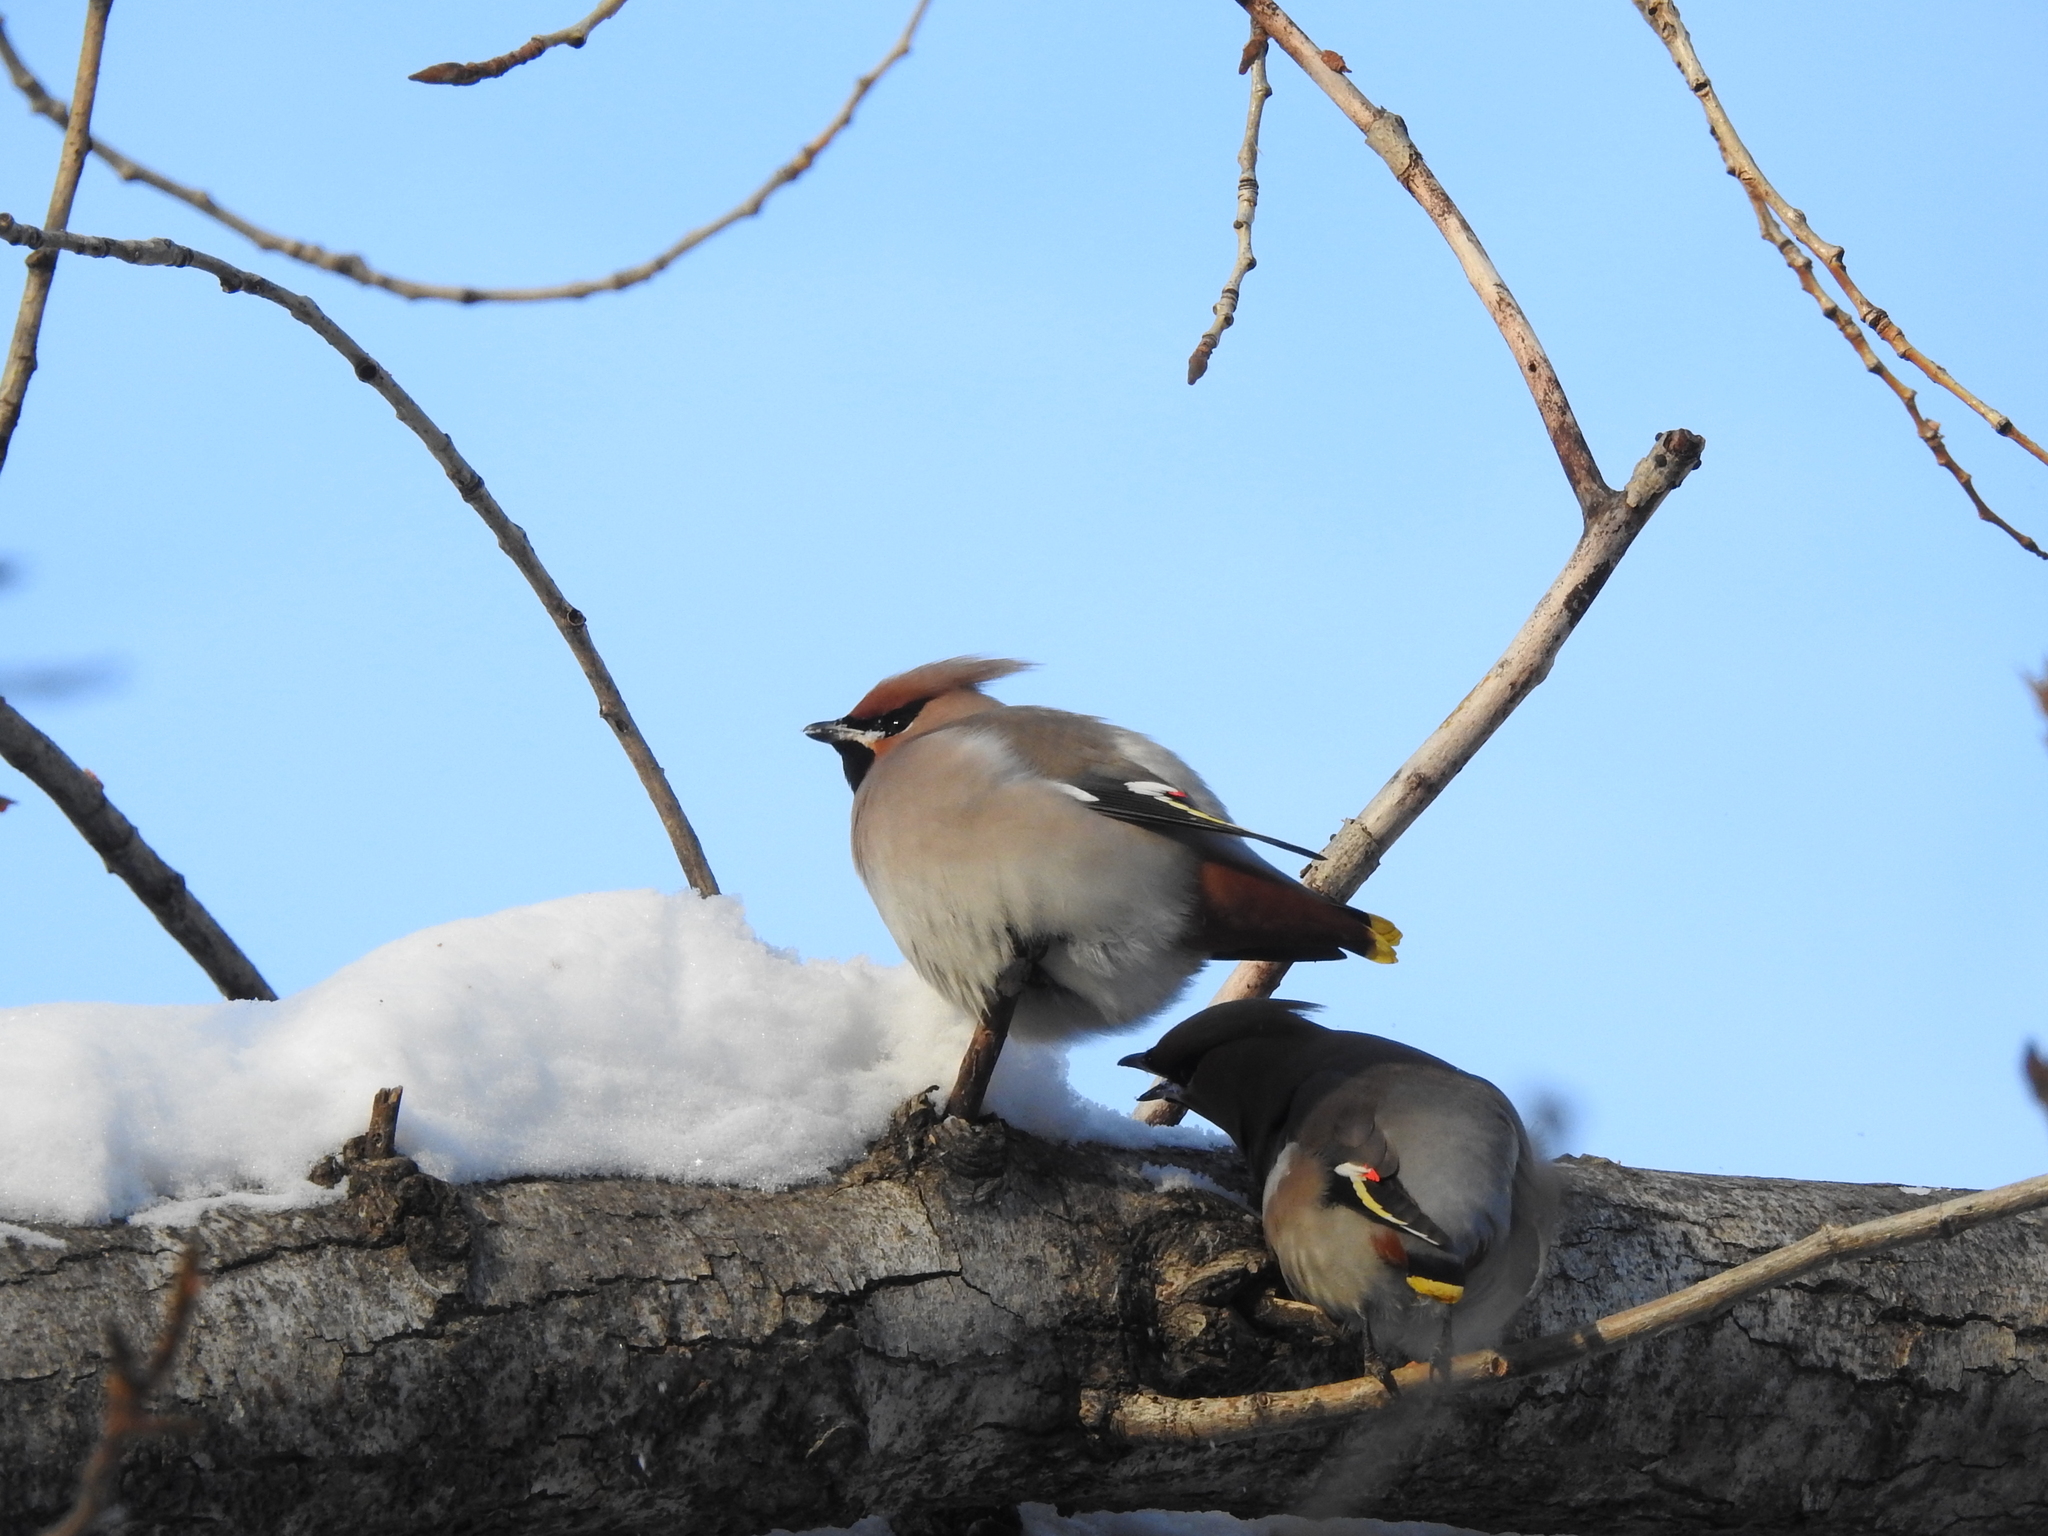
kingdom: Animalia
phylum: Chordata
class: Aves
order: Passeriformes
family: Bombycillidae
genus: Bombycilla
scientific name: Bombycilla garrulus
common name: Bohemian waxwing
